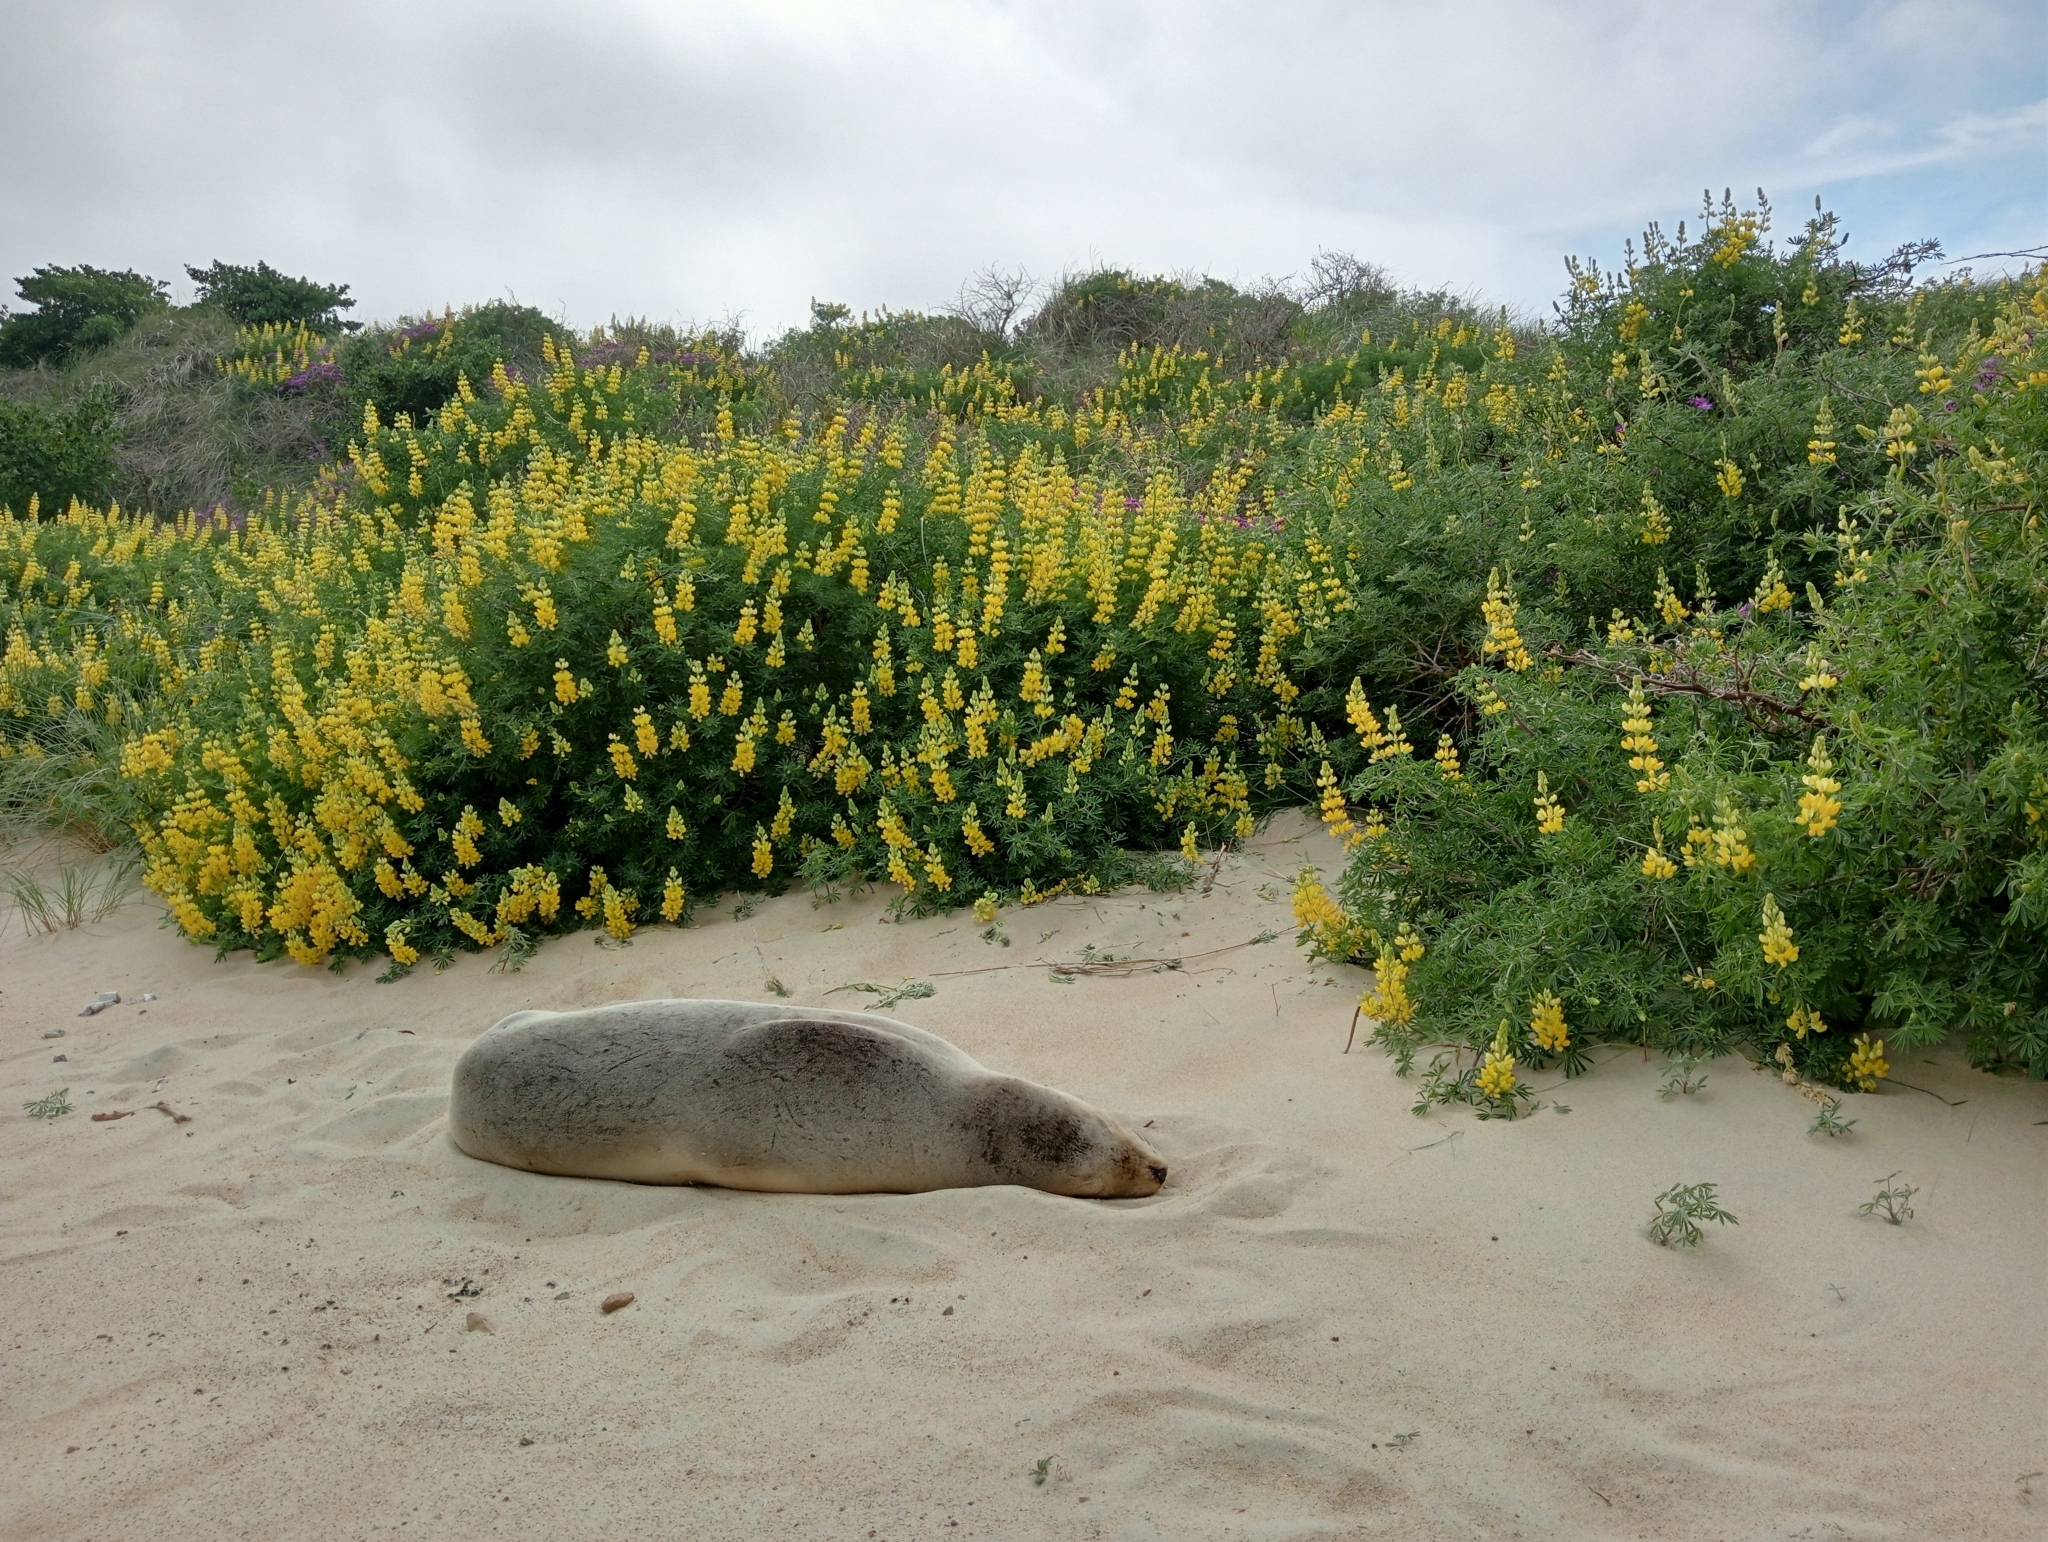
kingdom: Animalia
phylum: Chordata
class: Mammalia
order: Carnivora
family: Otariidae
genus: Phocarctos
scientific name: Phocarctos hookeri
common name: New zealand sea lion
